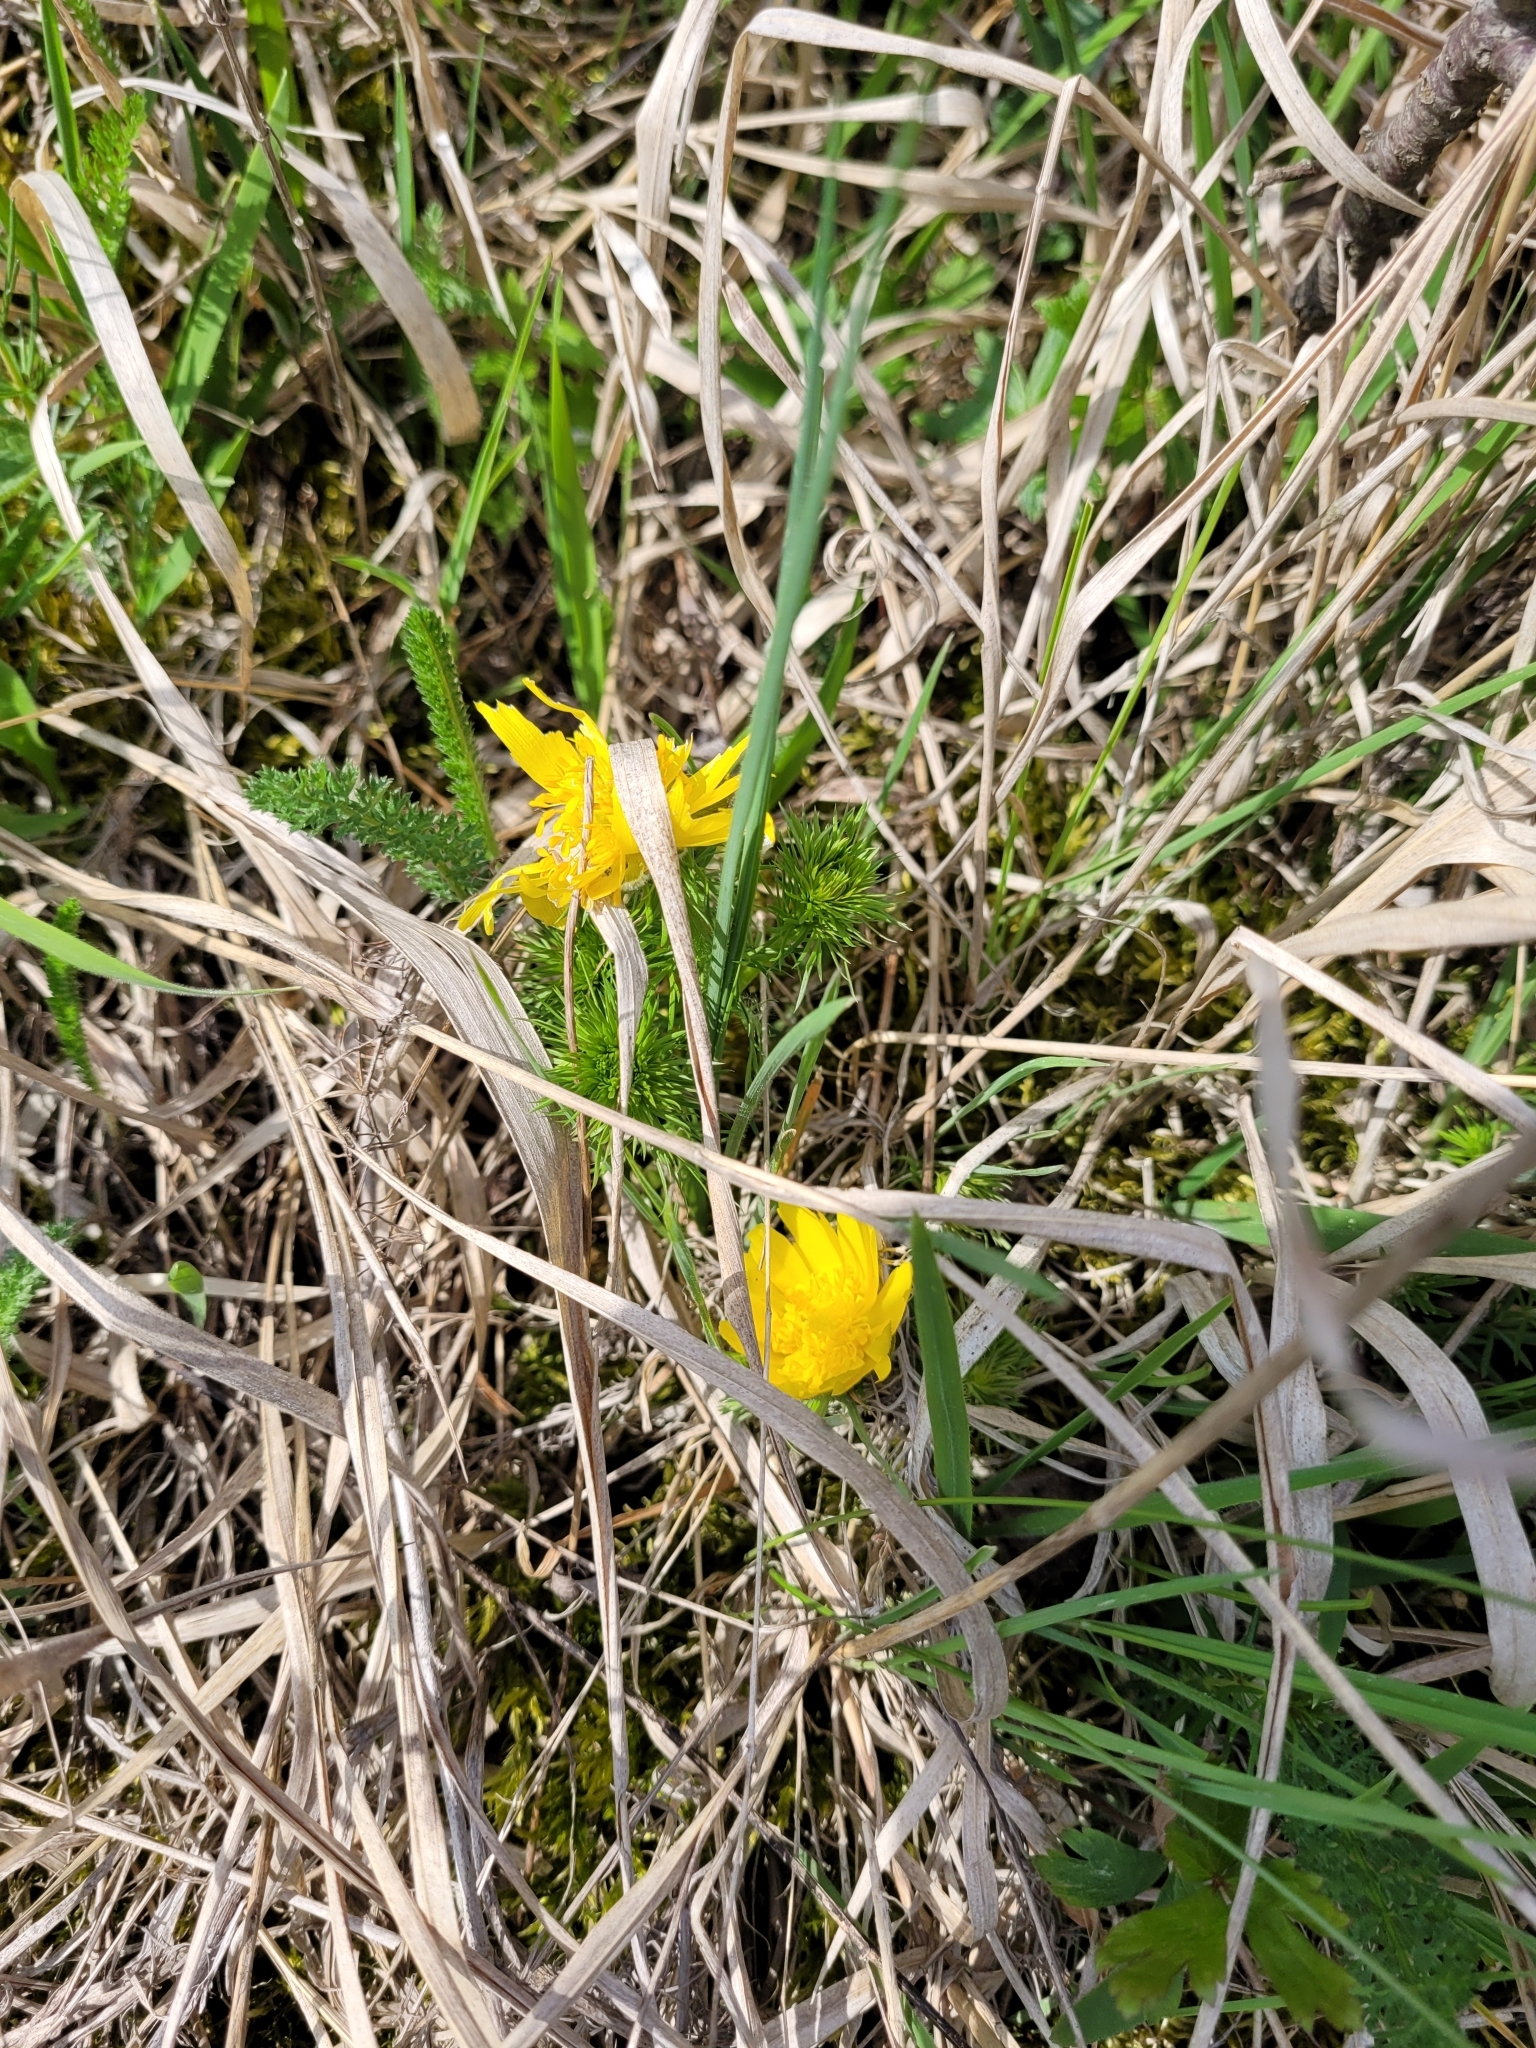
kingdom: Plantae
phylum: Tracheophyta
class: Magnoliopsida
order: Ranunculales
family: Ranunculaceae
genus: Adonis
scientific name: Adonis vernalis
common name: Yellow pheasants-eye
